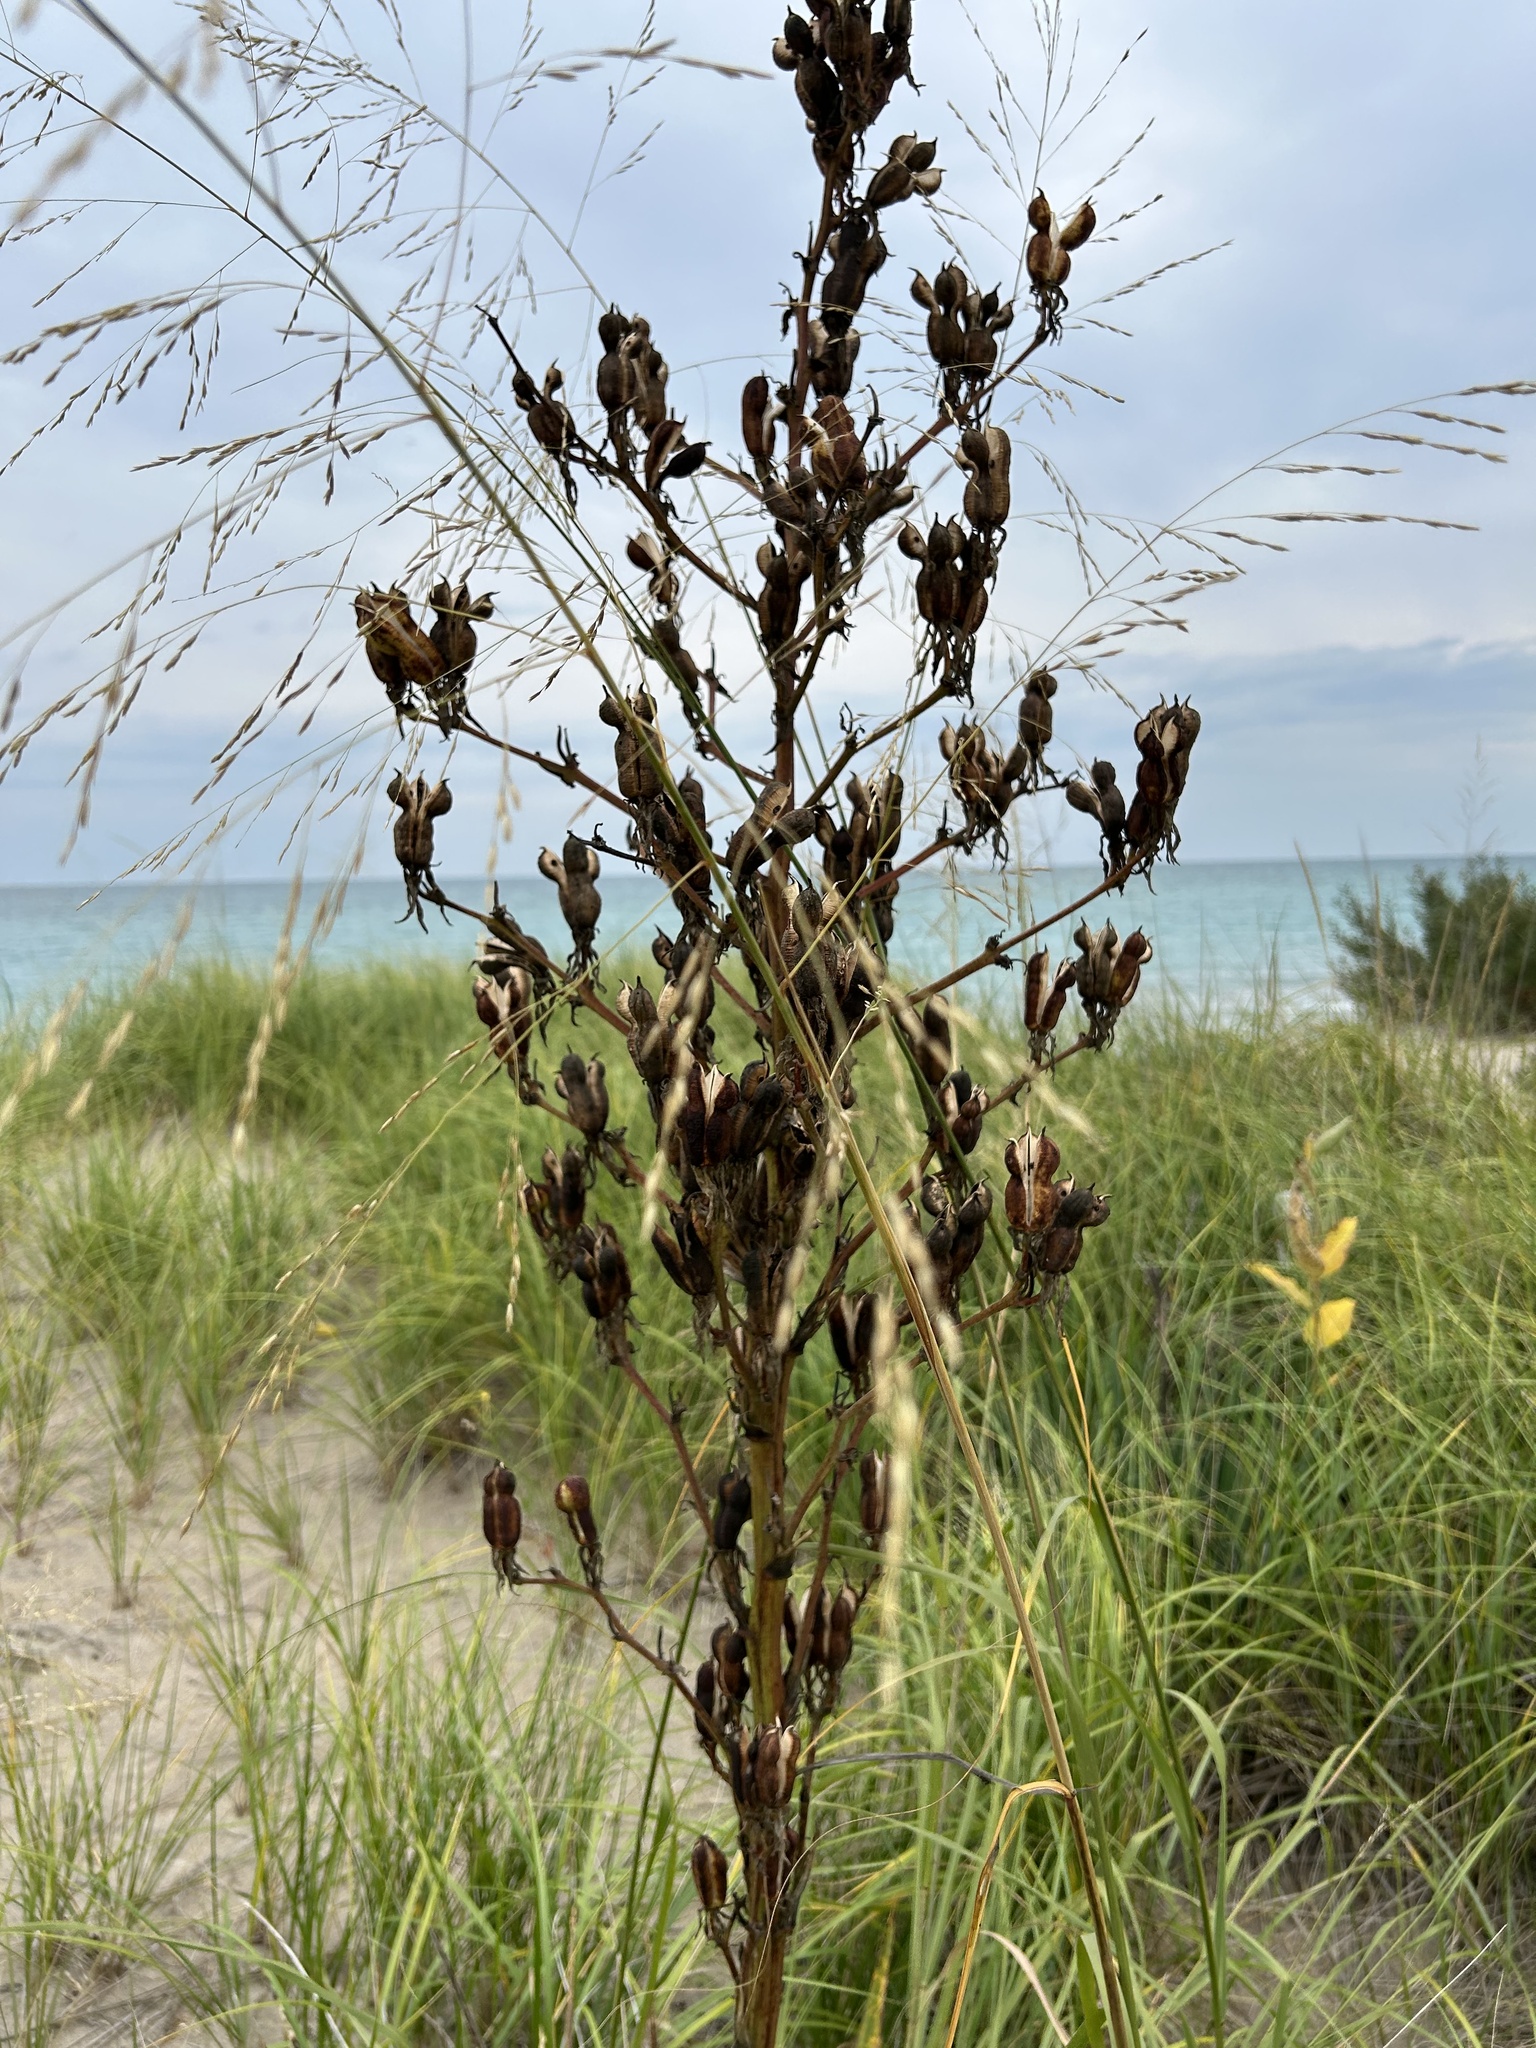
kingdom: Plantae
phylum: Tracheophyta
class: Liliopsida
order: Asparagales
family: Asparagaceae
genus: Yucca
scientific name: Yucca flaccida
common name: Adam's-needle
